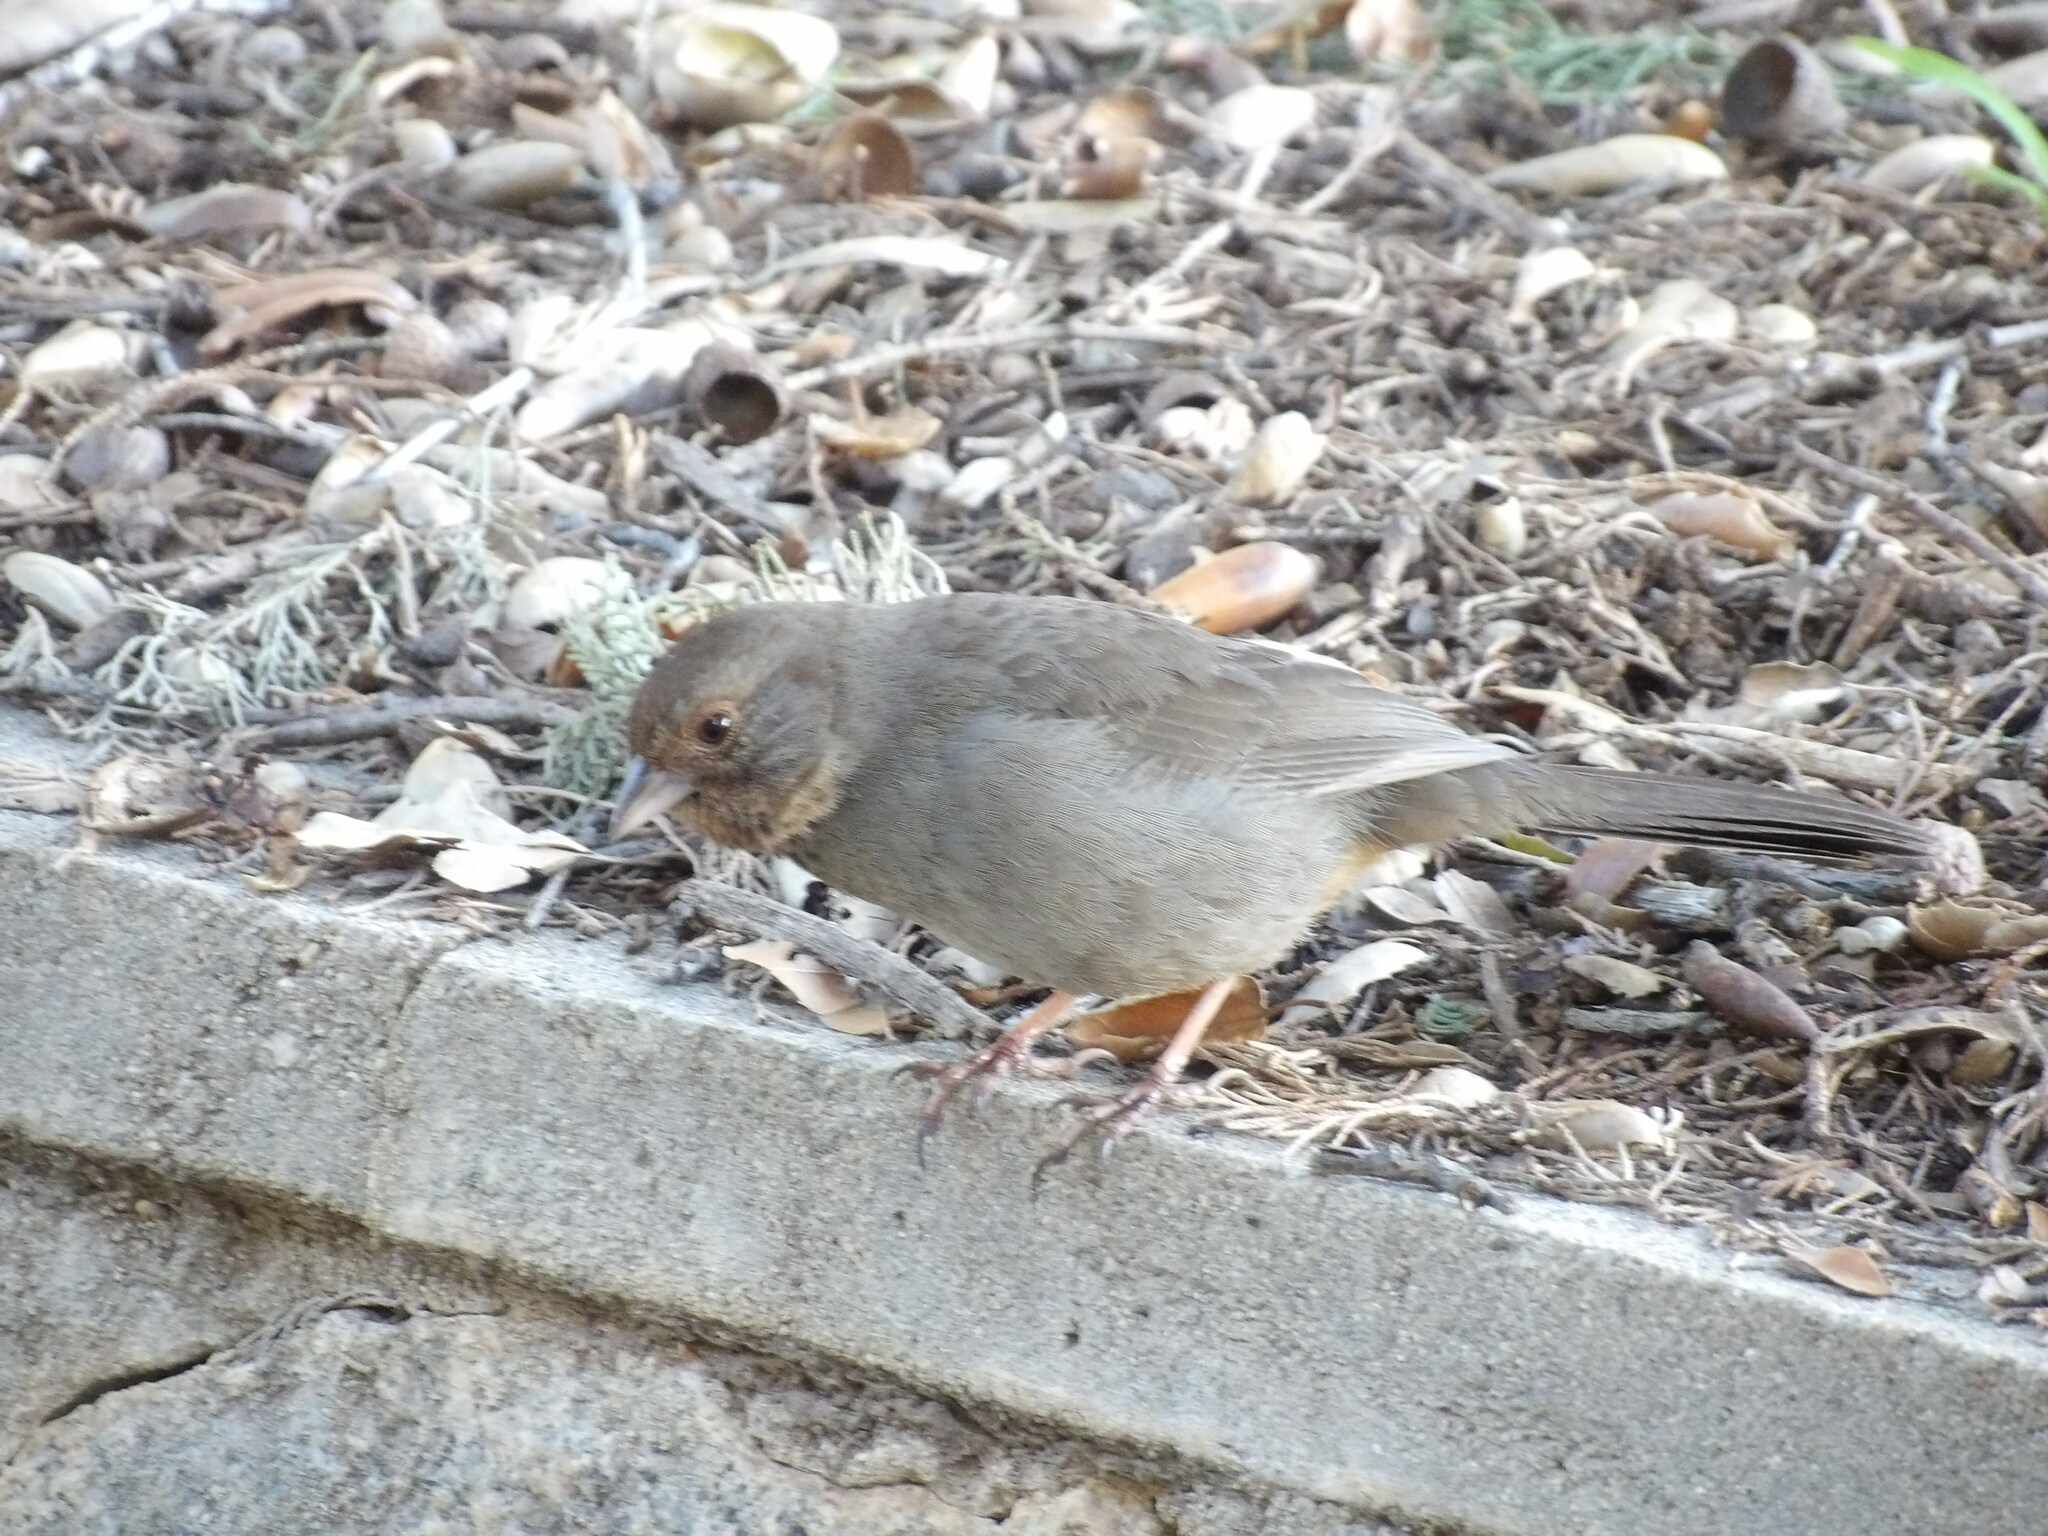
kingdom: Animalia
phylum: Chordata
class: Aves
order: Passeriformes
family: Passerellidae
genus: Melozone
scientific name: Melozone crissalis
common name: California towhee
